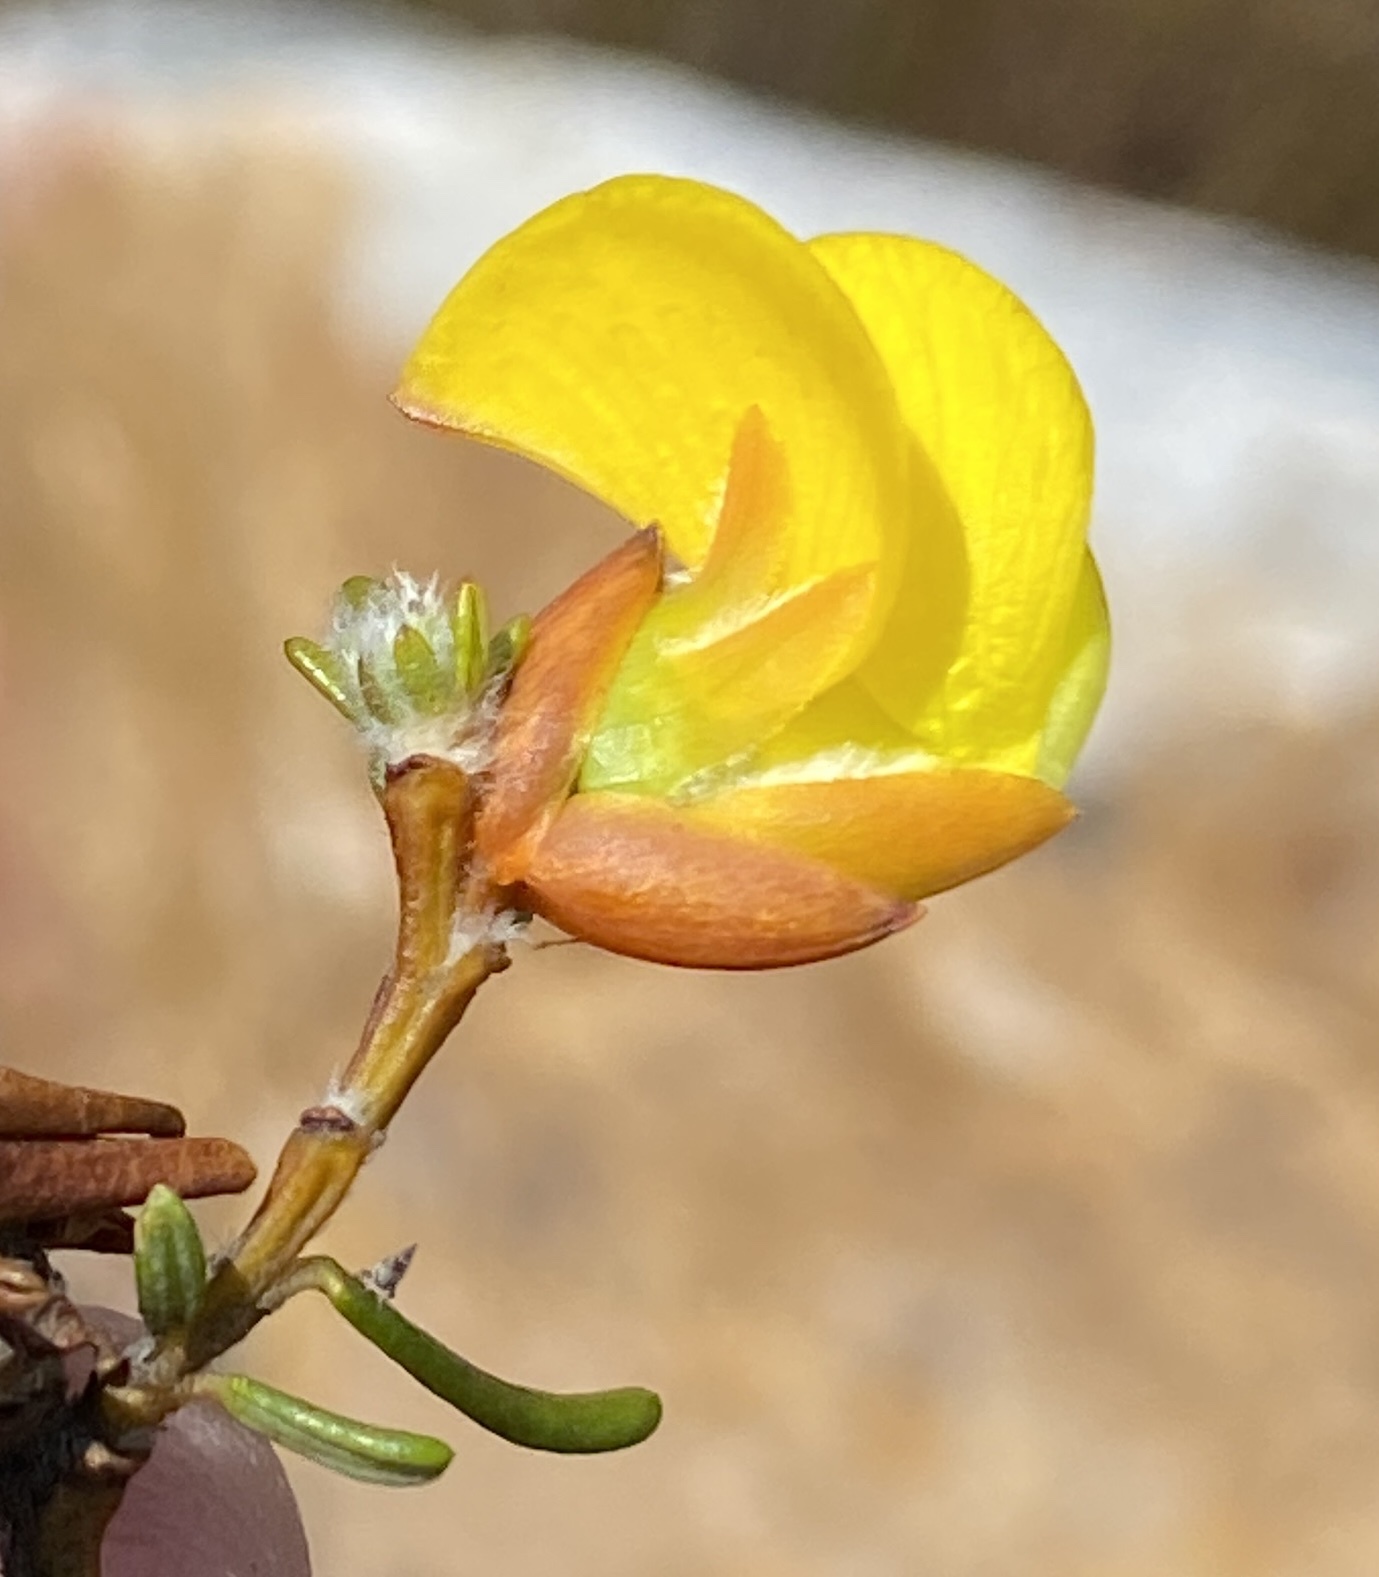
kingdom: Plantae
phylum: Tracheophyta
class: Magnoliopsida
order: Fabales
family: Fabaceae
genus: Cyclopia
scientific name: Cyclopia glabra
